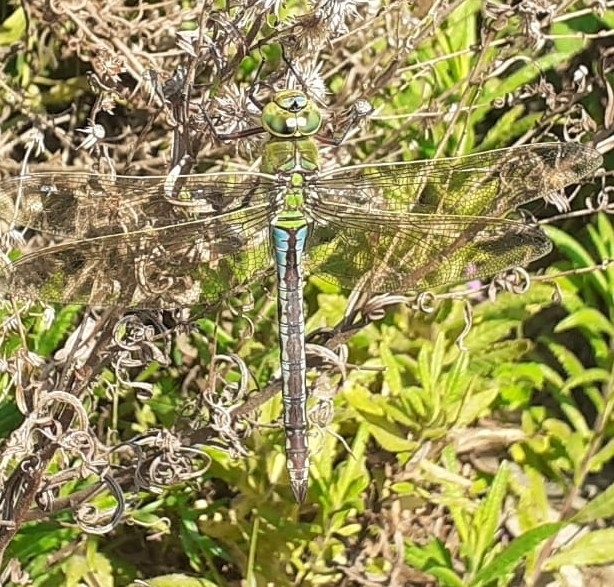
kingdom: Animalia
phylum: Arthropoda
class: Insecta
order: Odonata
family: Aeshnidae
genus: Anax
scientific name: Anax imperator
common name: Emperor dragonfly
